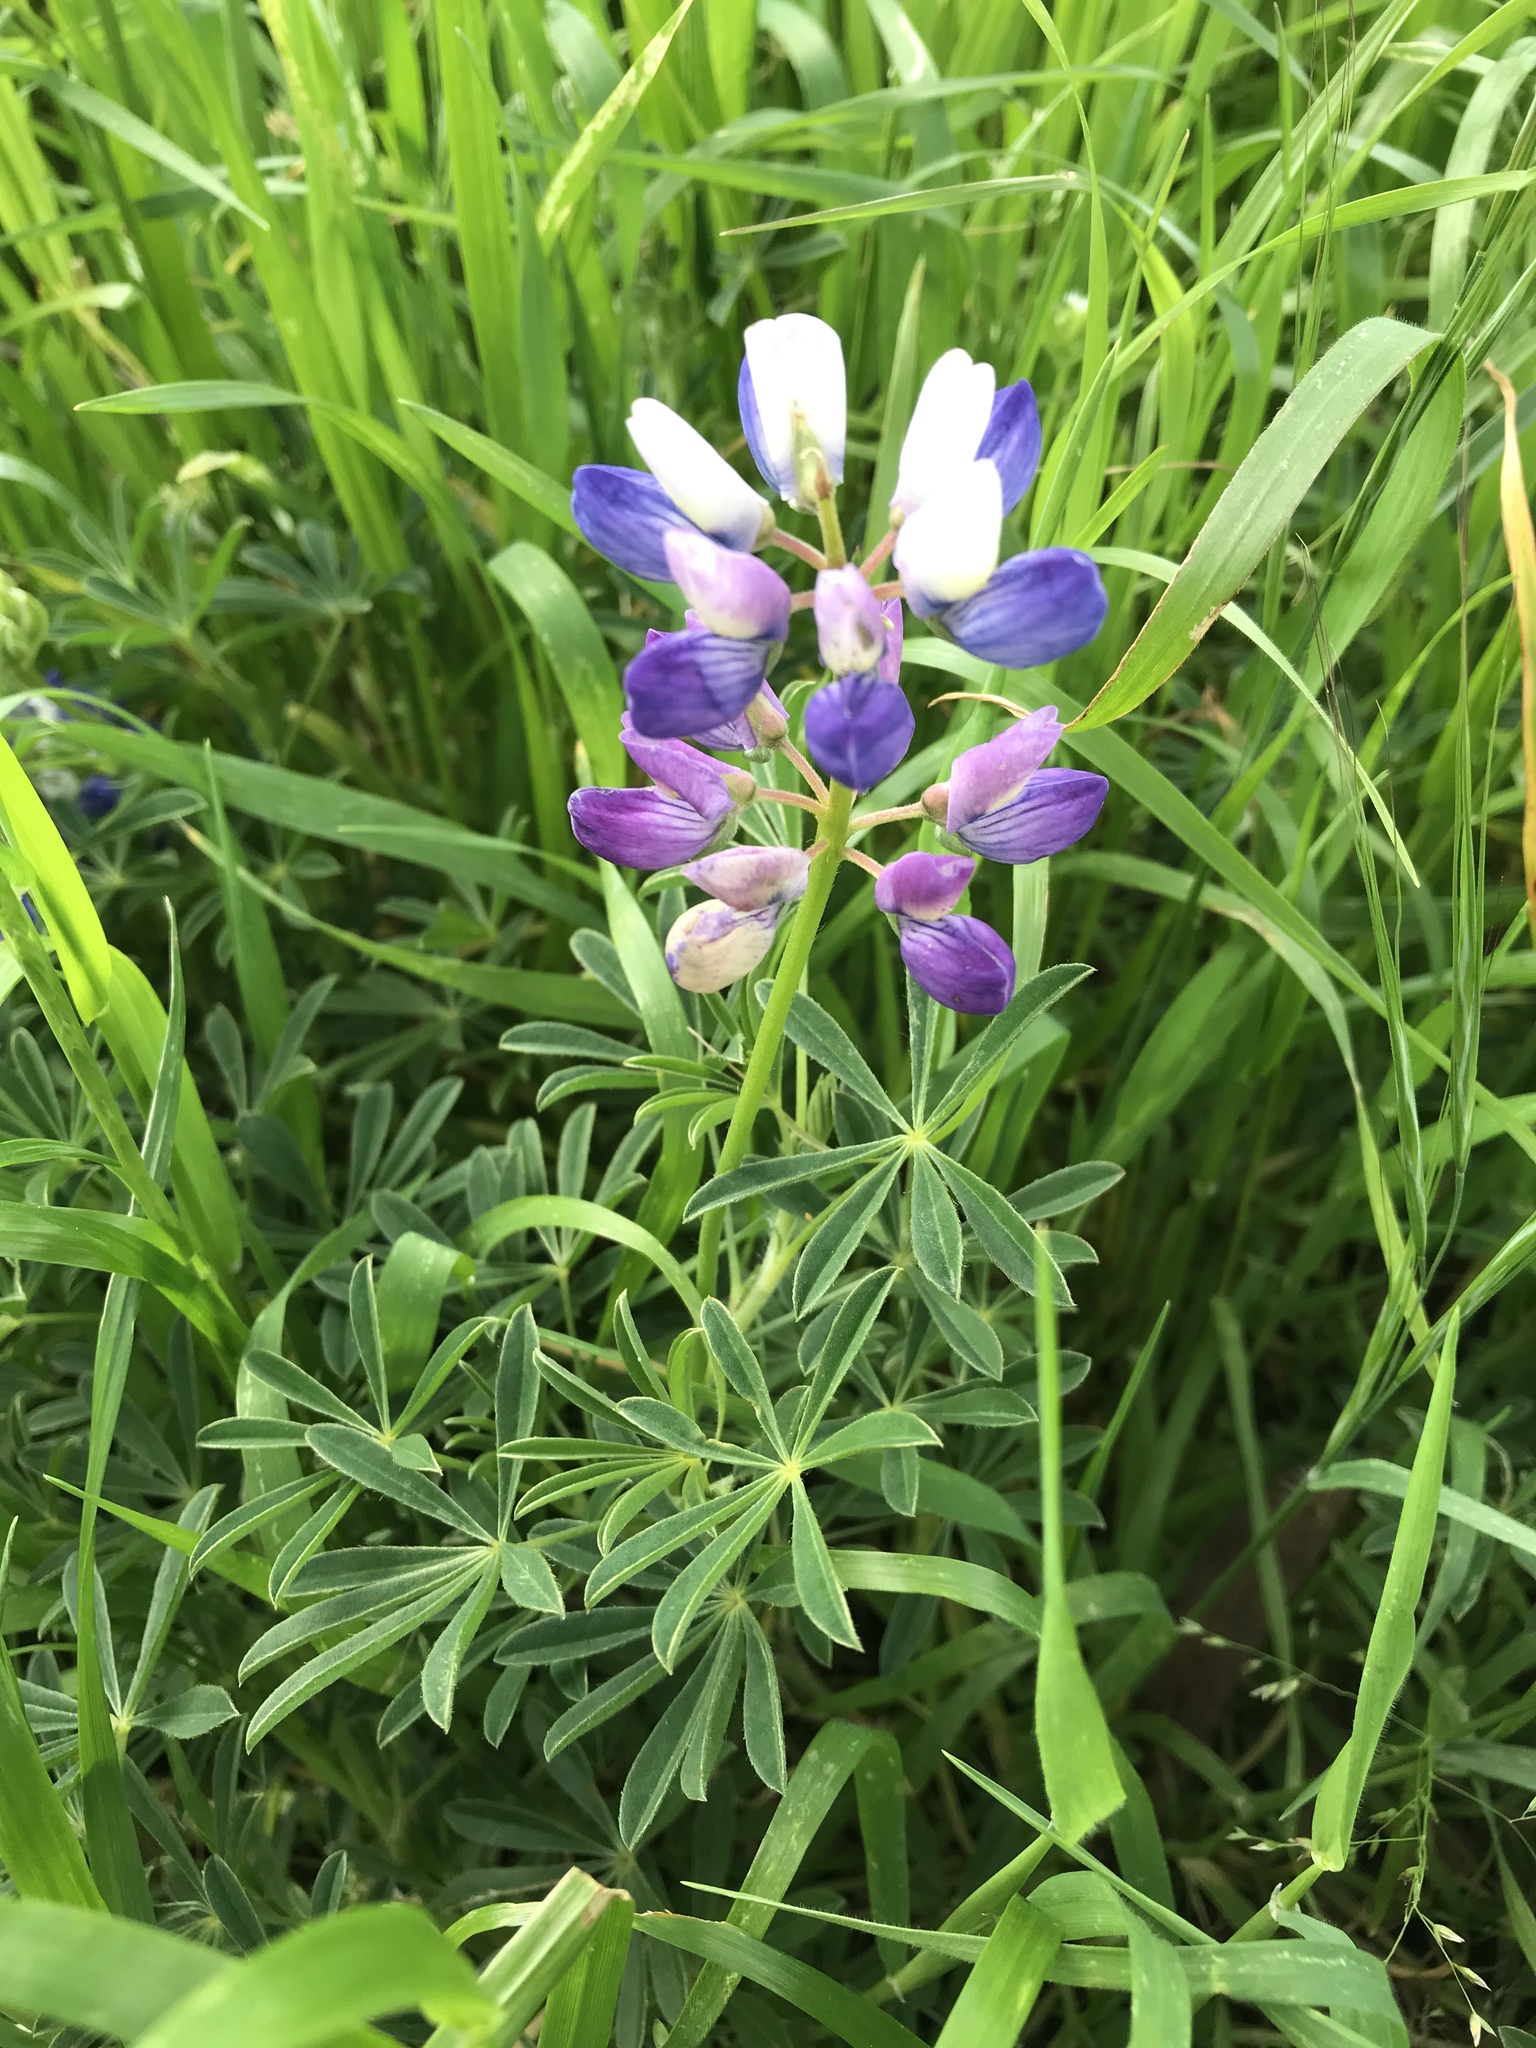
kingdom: Plantae
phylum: Tracheophyta
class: Magnoliopsida
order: Fabales
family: Fabaceae
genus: Lupinus
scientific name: Lupinus variicolor
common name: Lindley's varied lupine
